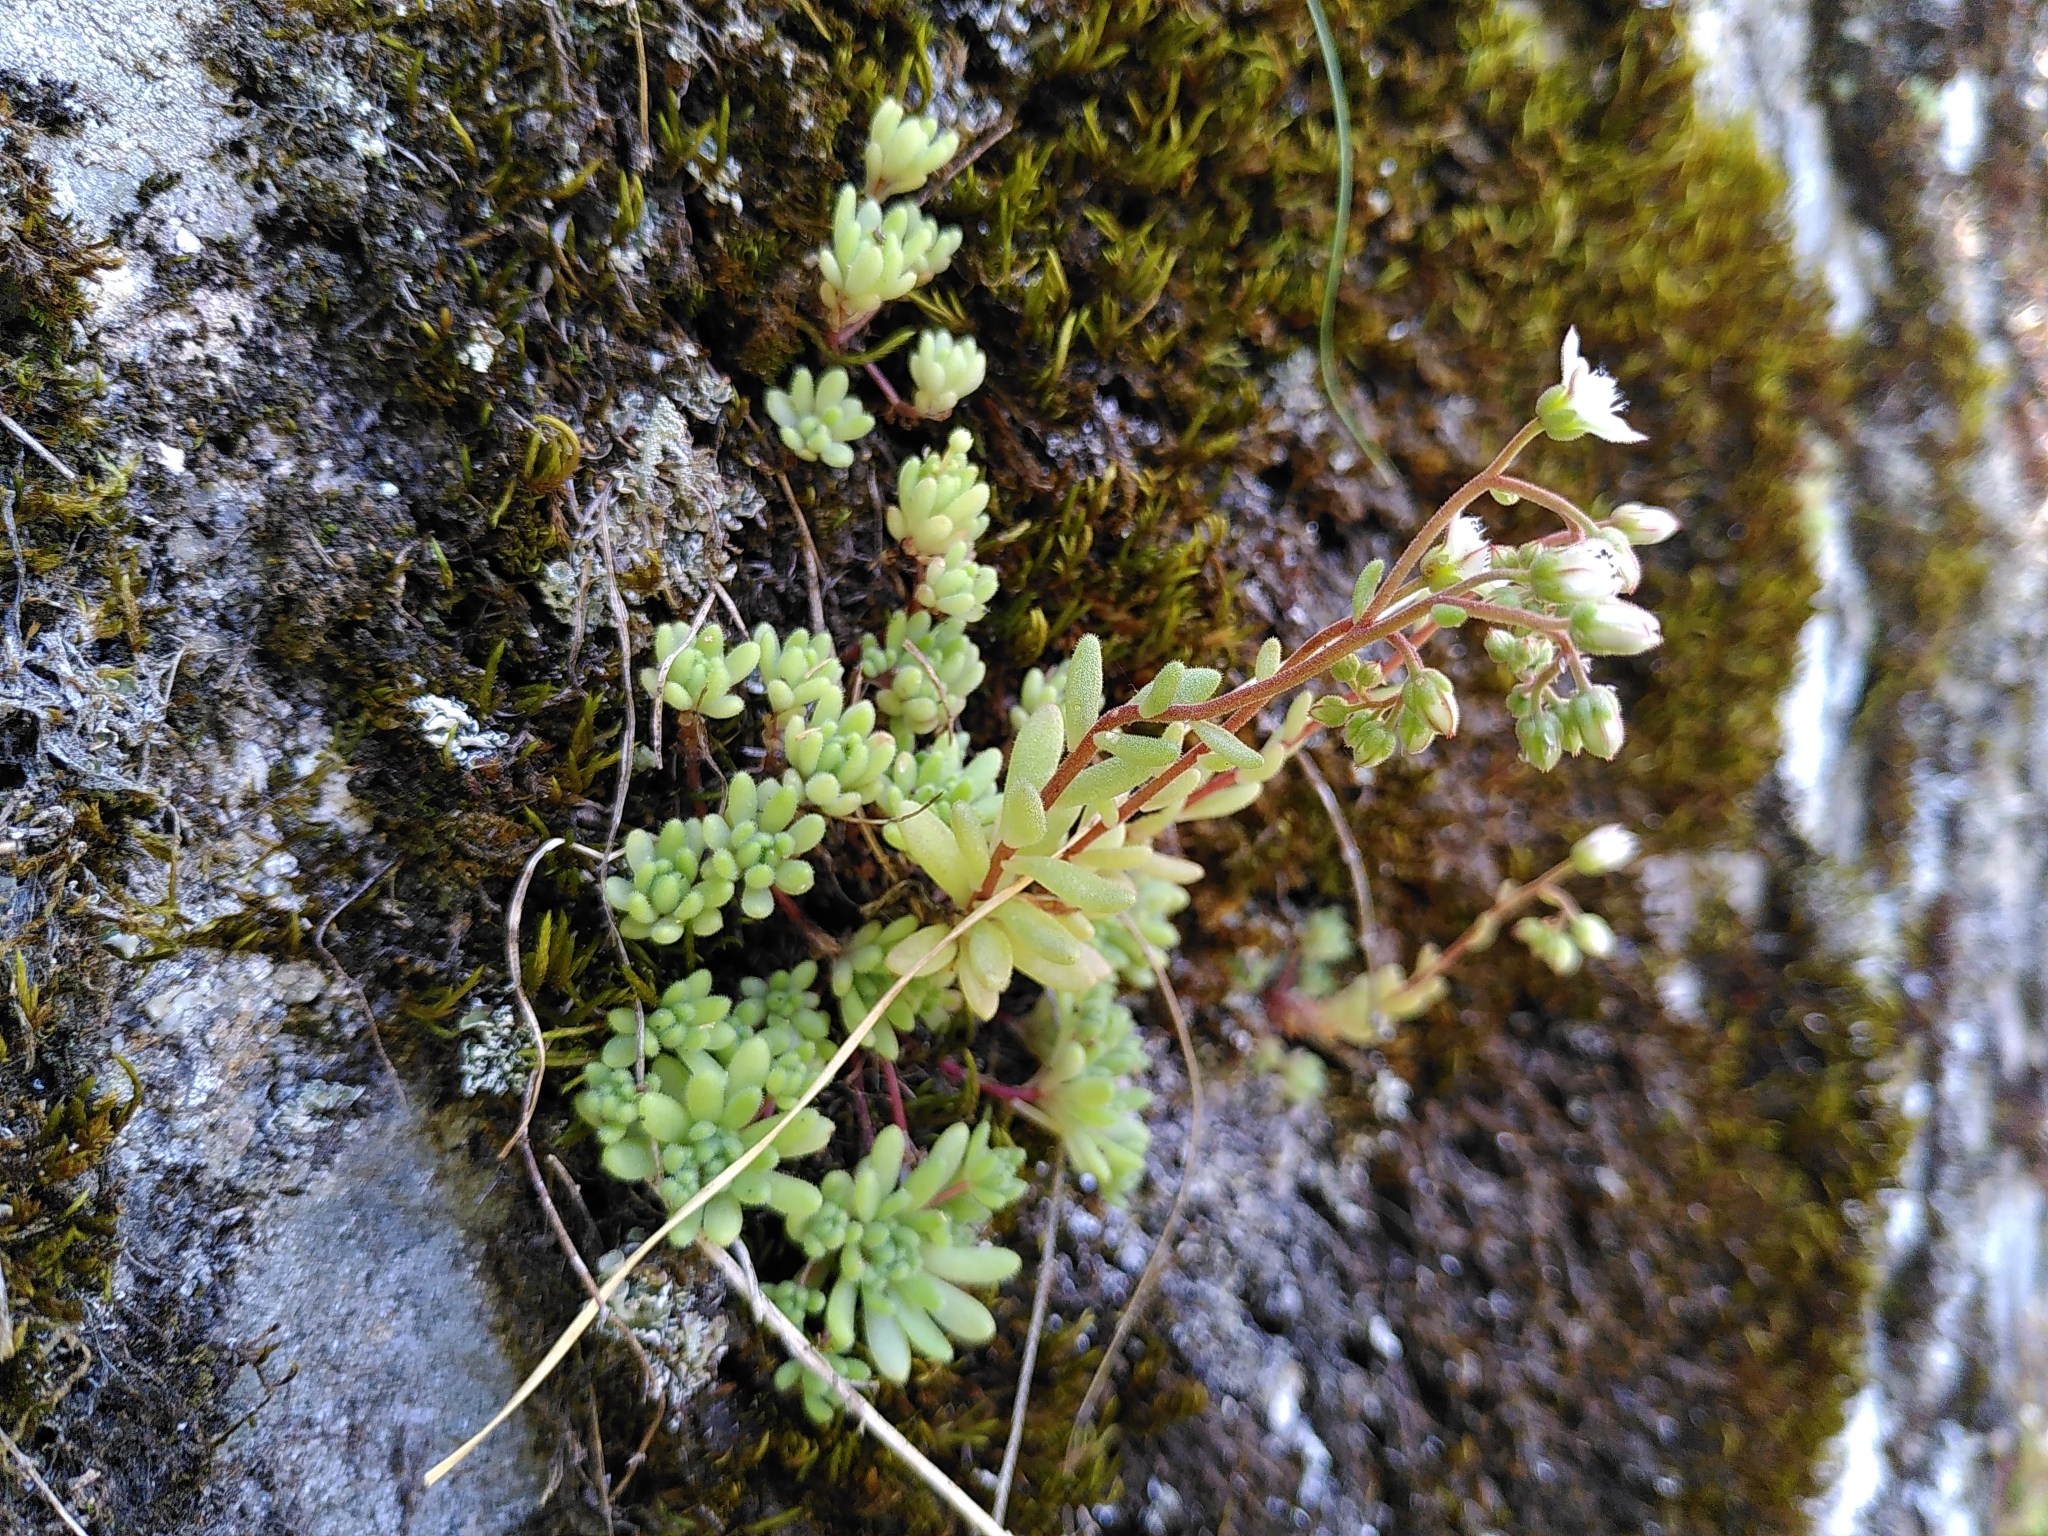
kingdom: Plantae
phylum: Tracheophyta
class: Magnoliopsida
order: Saxifragales
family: Crassulaceae
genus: Sedum
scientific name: Sedum album
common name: White stonecrop
